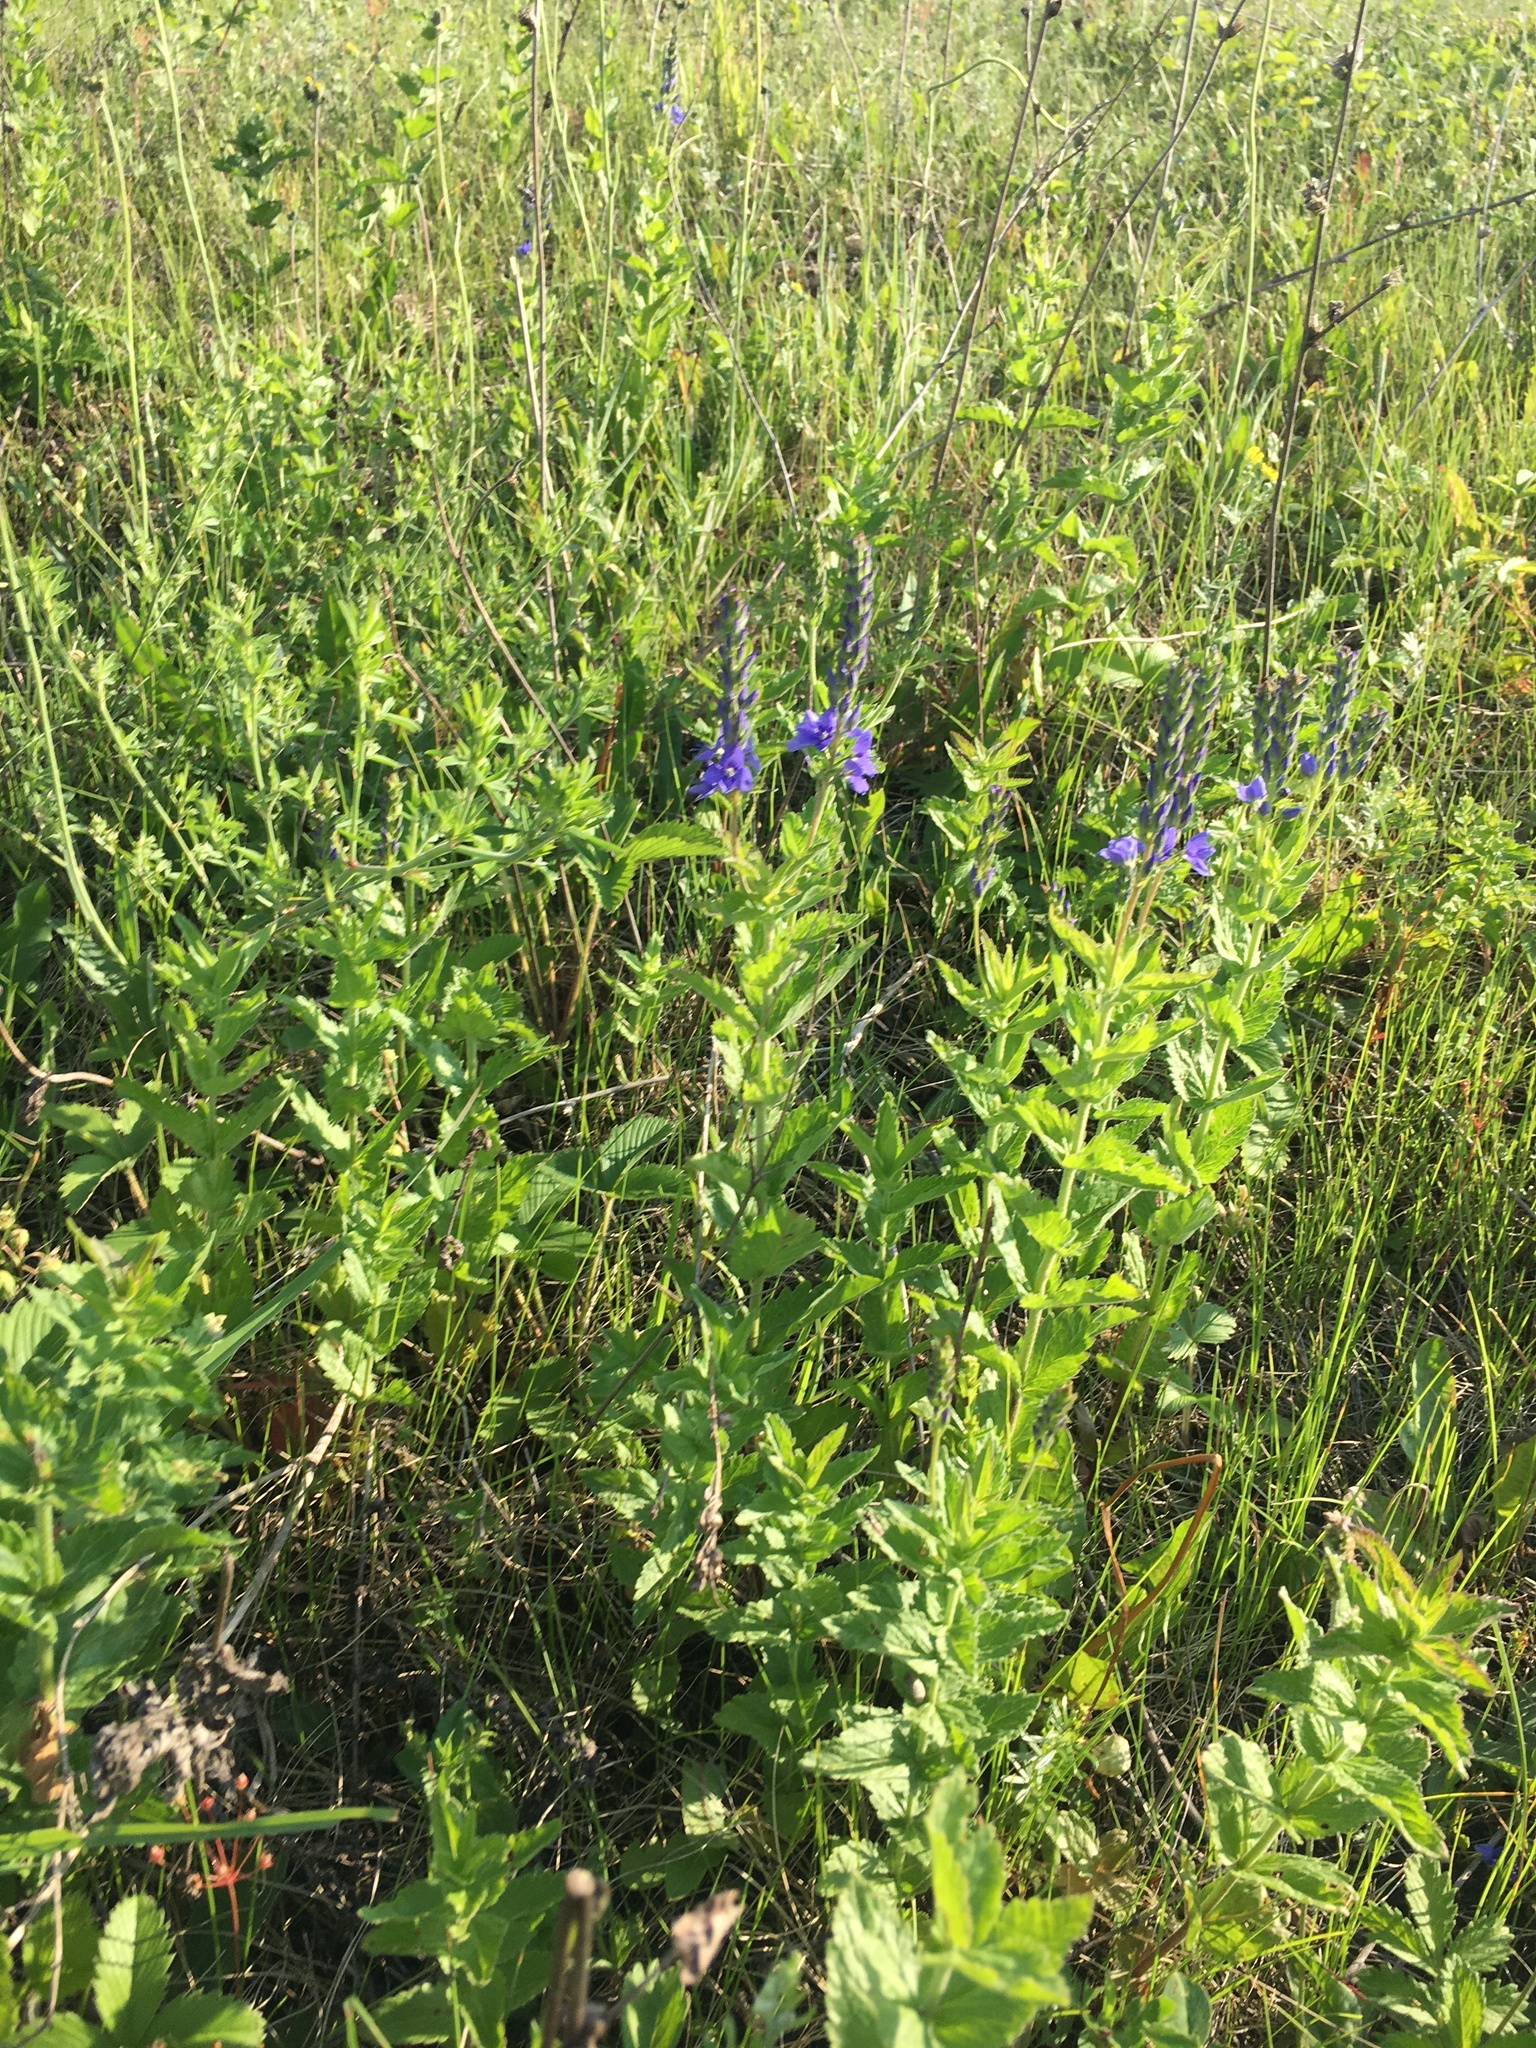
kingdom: Plantae
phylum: Tracheophyta
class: Magnoliopsida
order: Lamiales
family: Plantaginaceae
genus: Veronica
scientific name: Veronica teucrium
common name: Large speedwell
